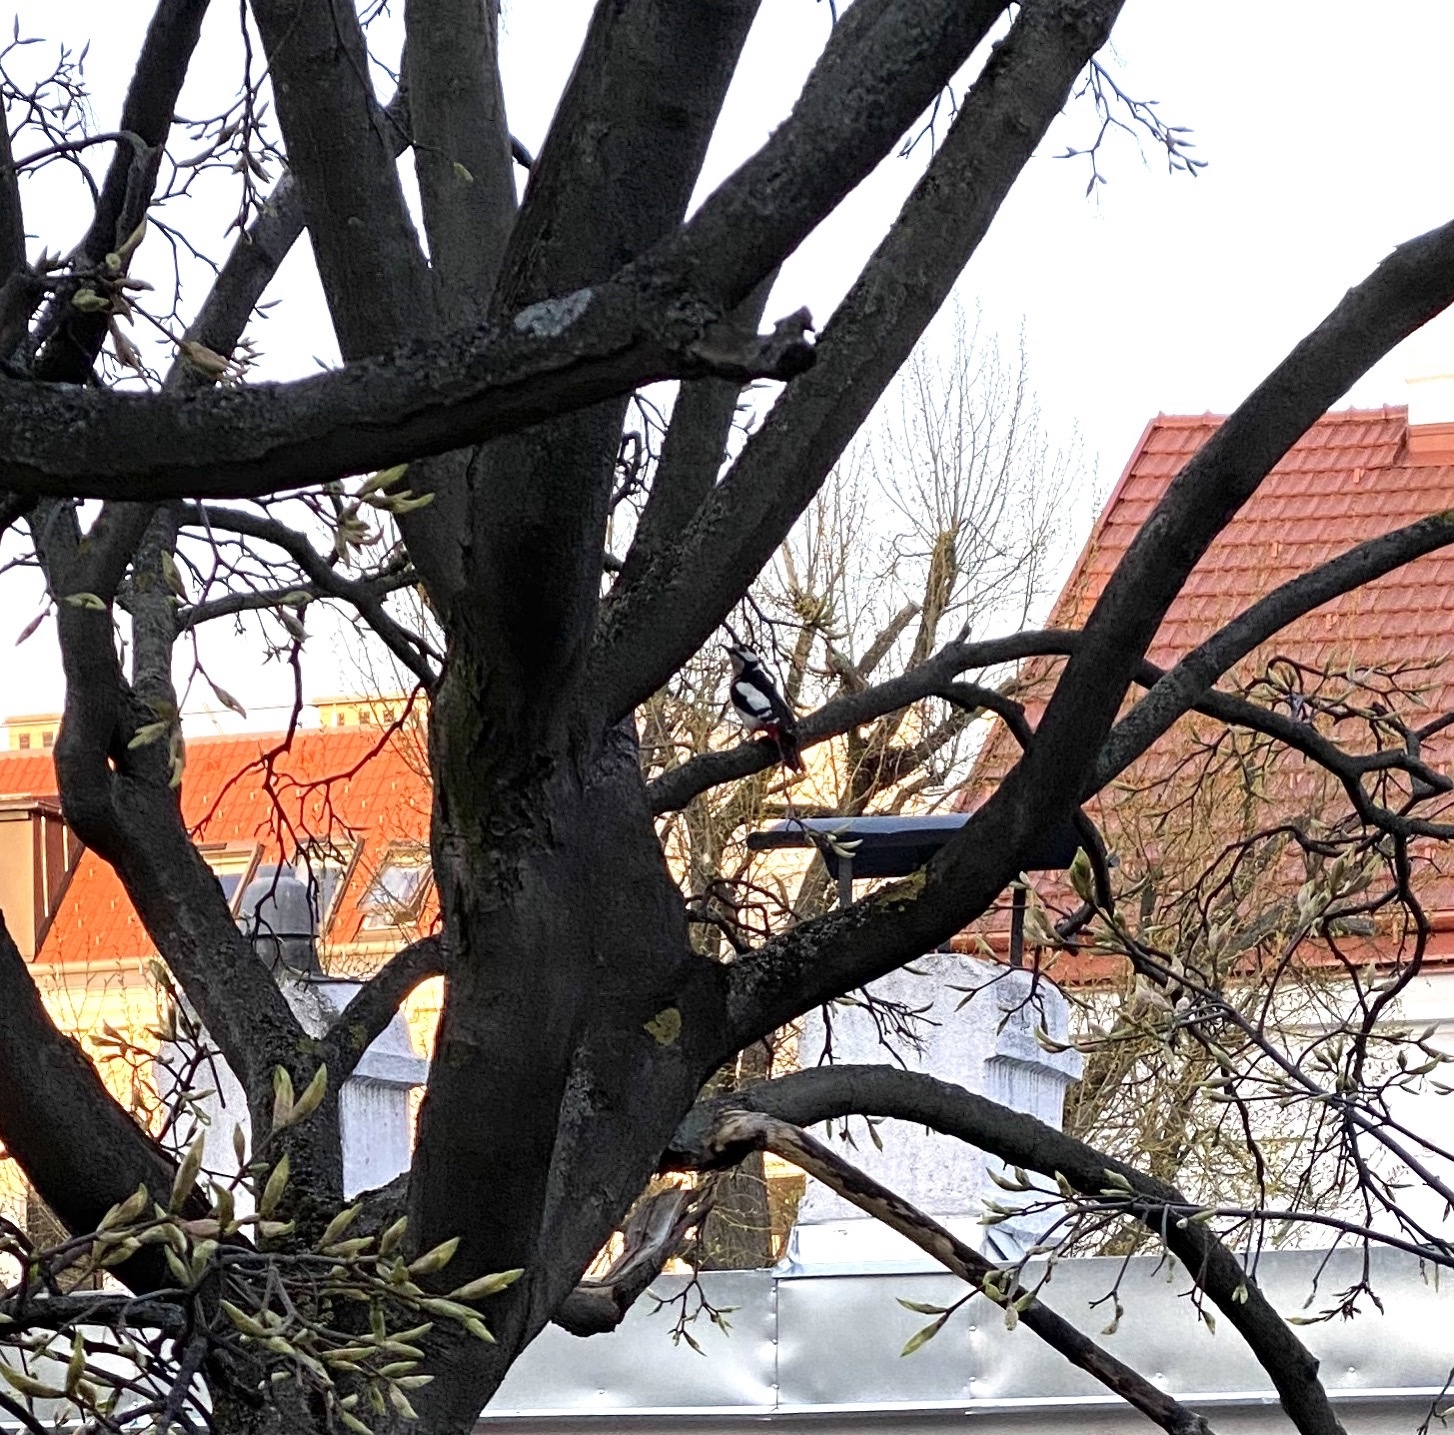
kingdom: Animalia
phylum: Chordata
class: Aves
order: Piciformes
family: Picidae
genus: Dendrocopos
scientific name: Dendrocopos major
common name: Great spotted woodpecker
